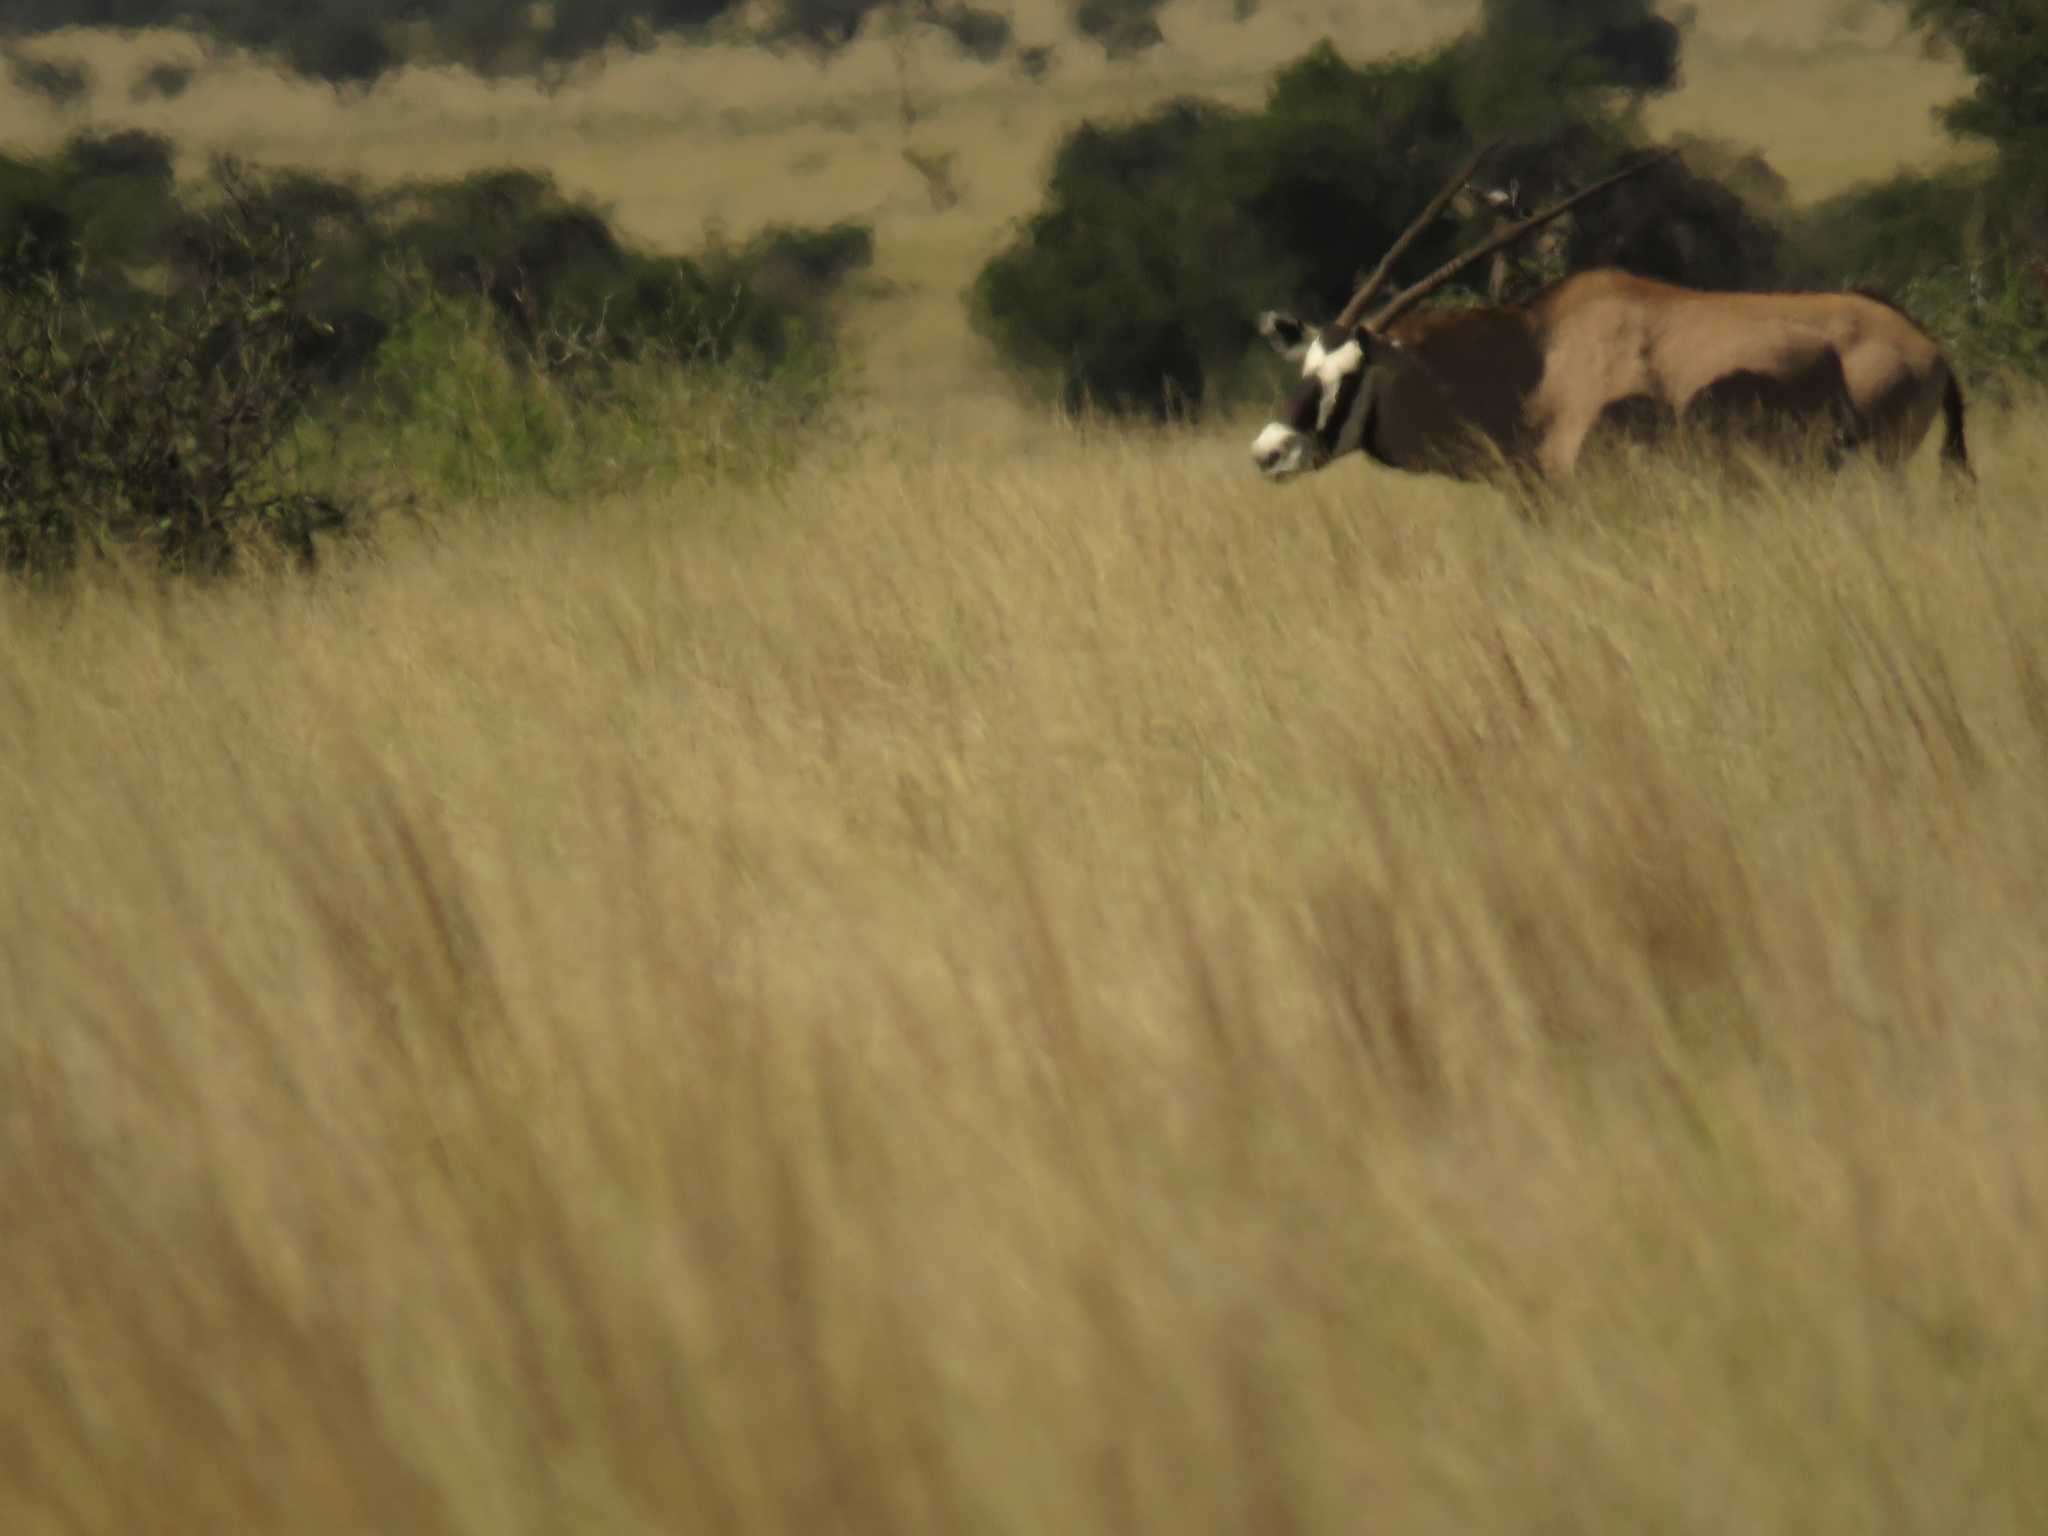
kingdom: Animalia
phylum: Chordata
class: Mammalia
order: Artiodactyla
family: Bovidae
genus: Oryx
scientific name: Oryx gazella
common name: Gemsbok
